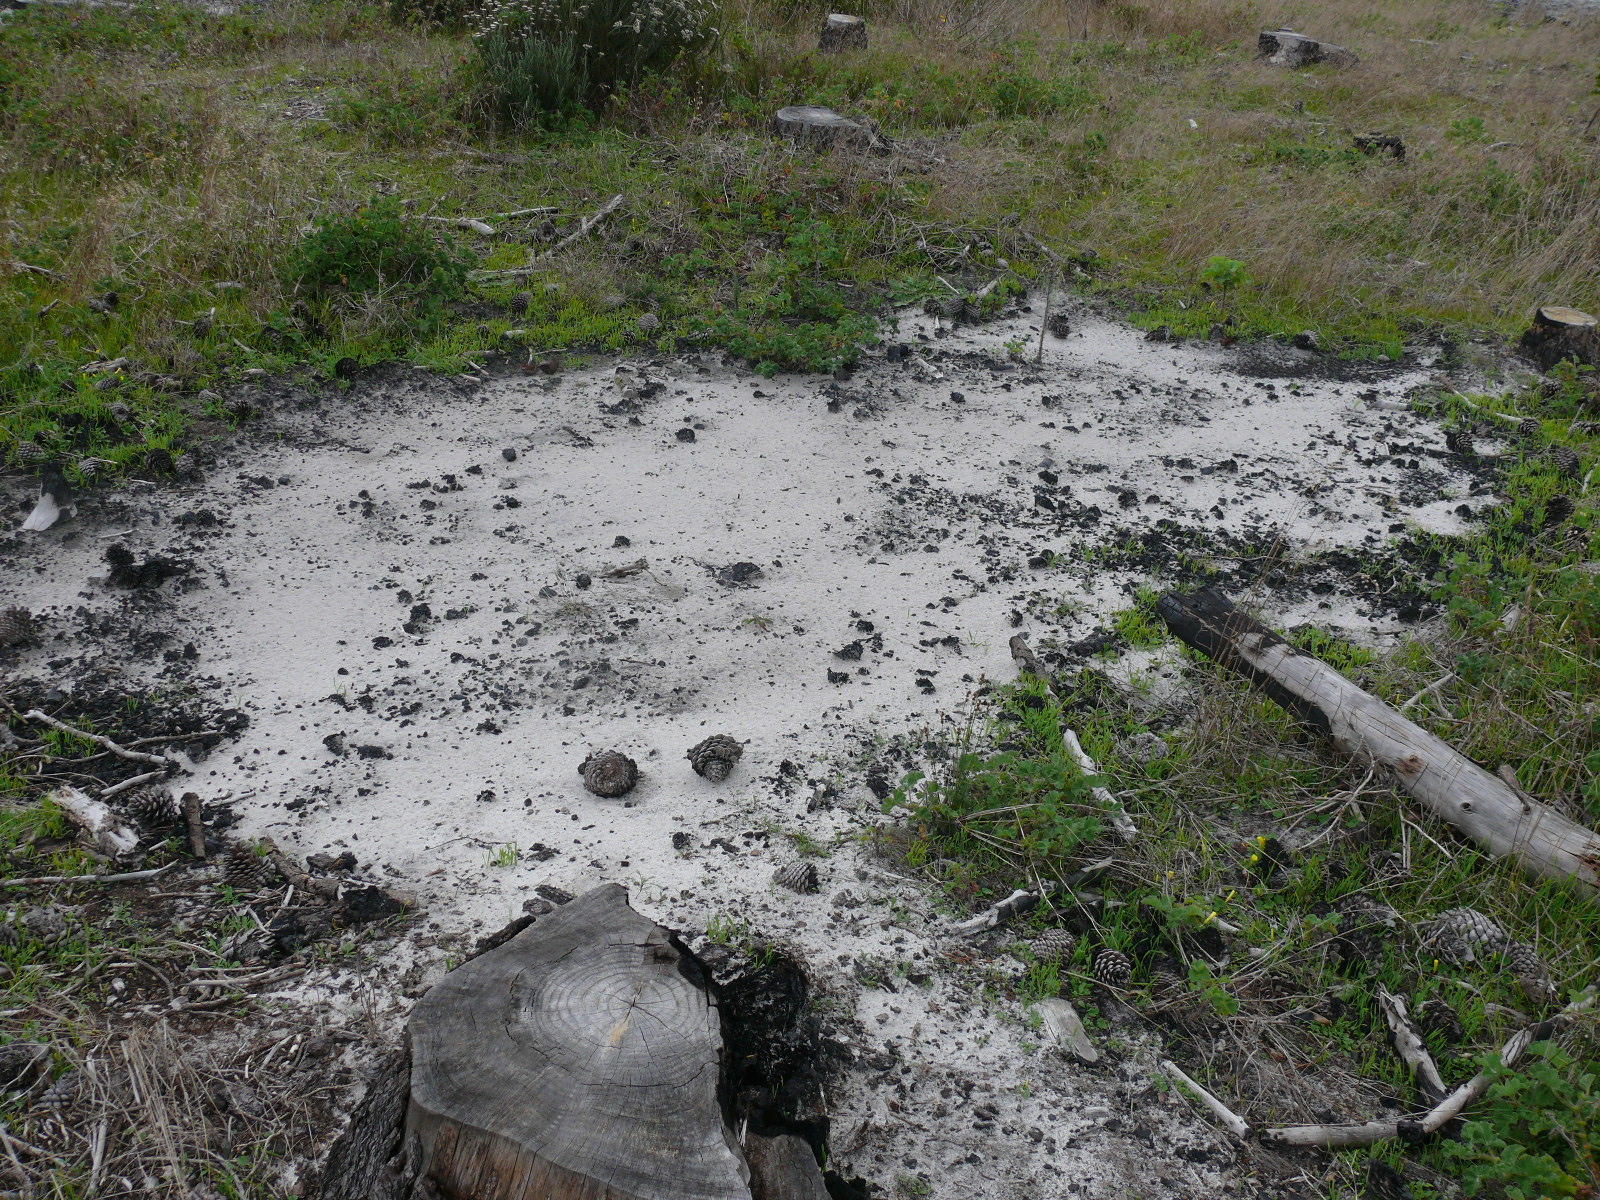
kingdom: Plantae
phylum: Tracheophyta
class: Liliopsida
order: Poales
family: Poaceae
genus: Briza
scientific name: Briza maxima
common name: Big quakinggrass
